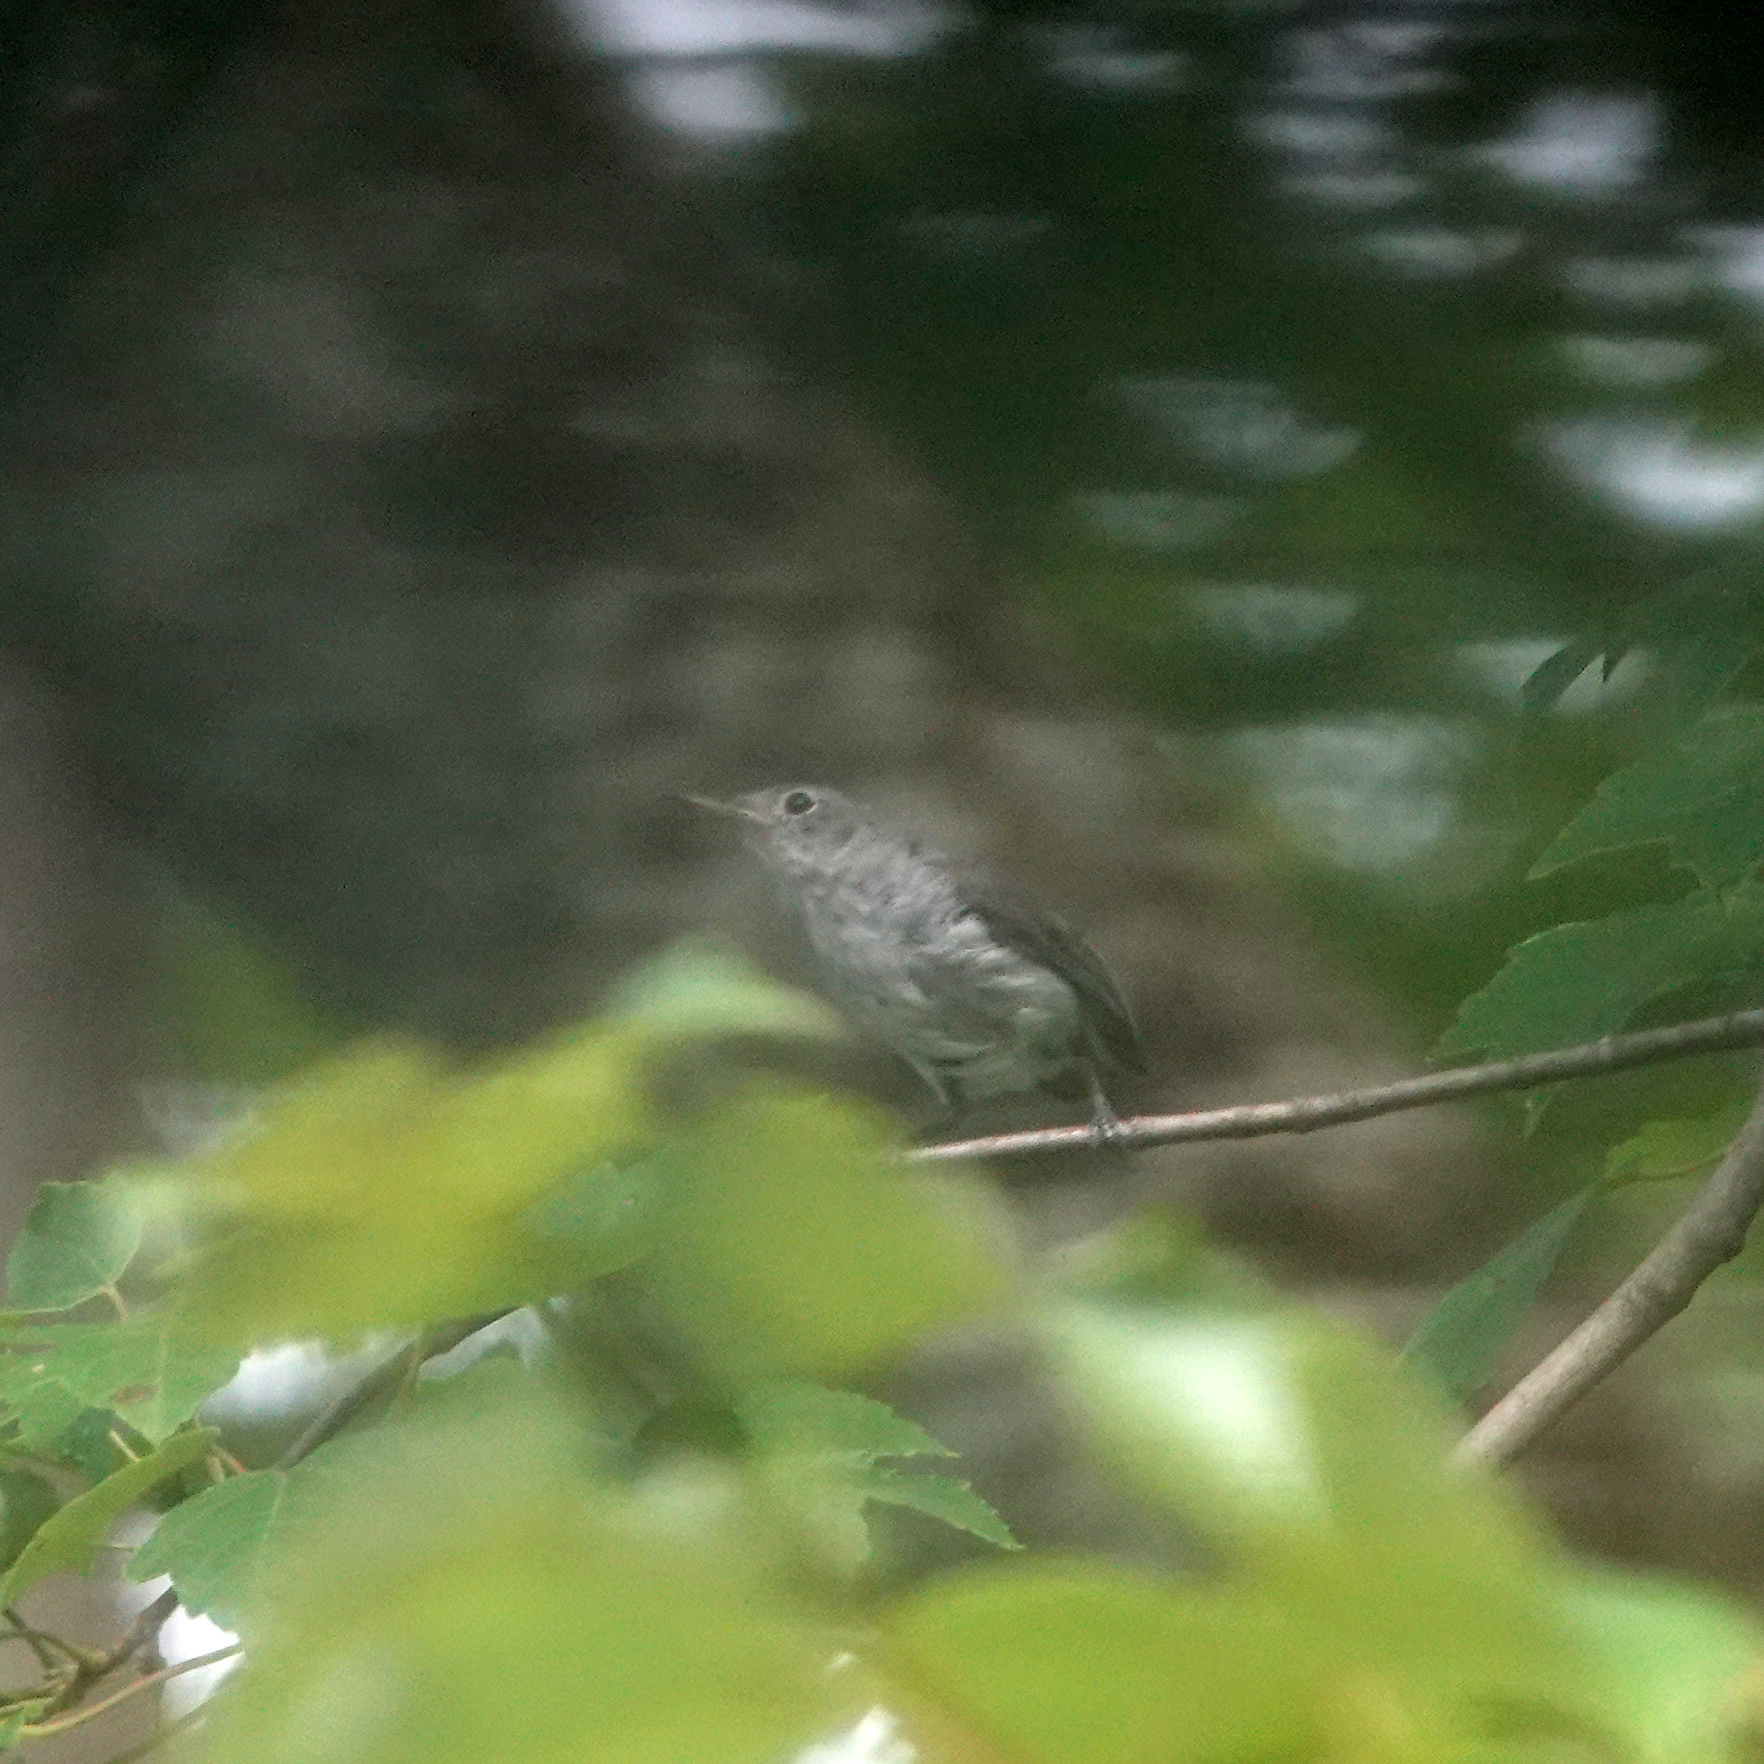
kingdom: Animalia
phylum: Chordata
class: Aves
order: Passeriformes
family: Polioptilidae
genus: Polioptila
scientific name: Polioptila caerulea
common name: Blue-gray gnatcatcher
